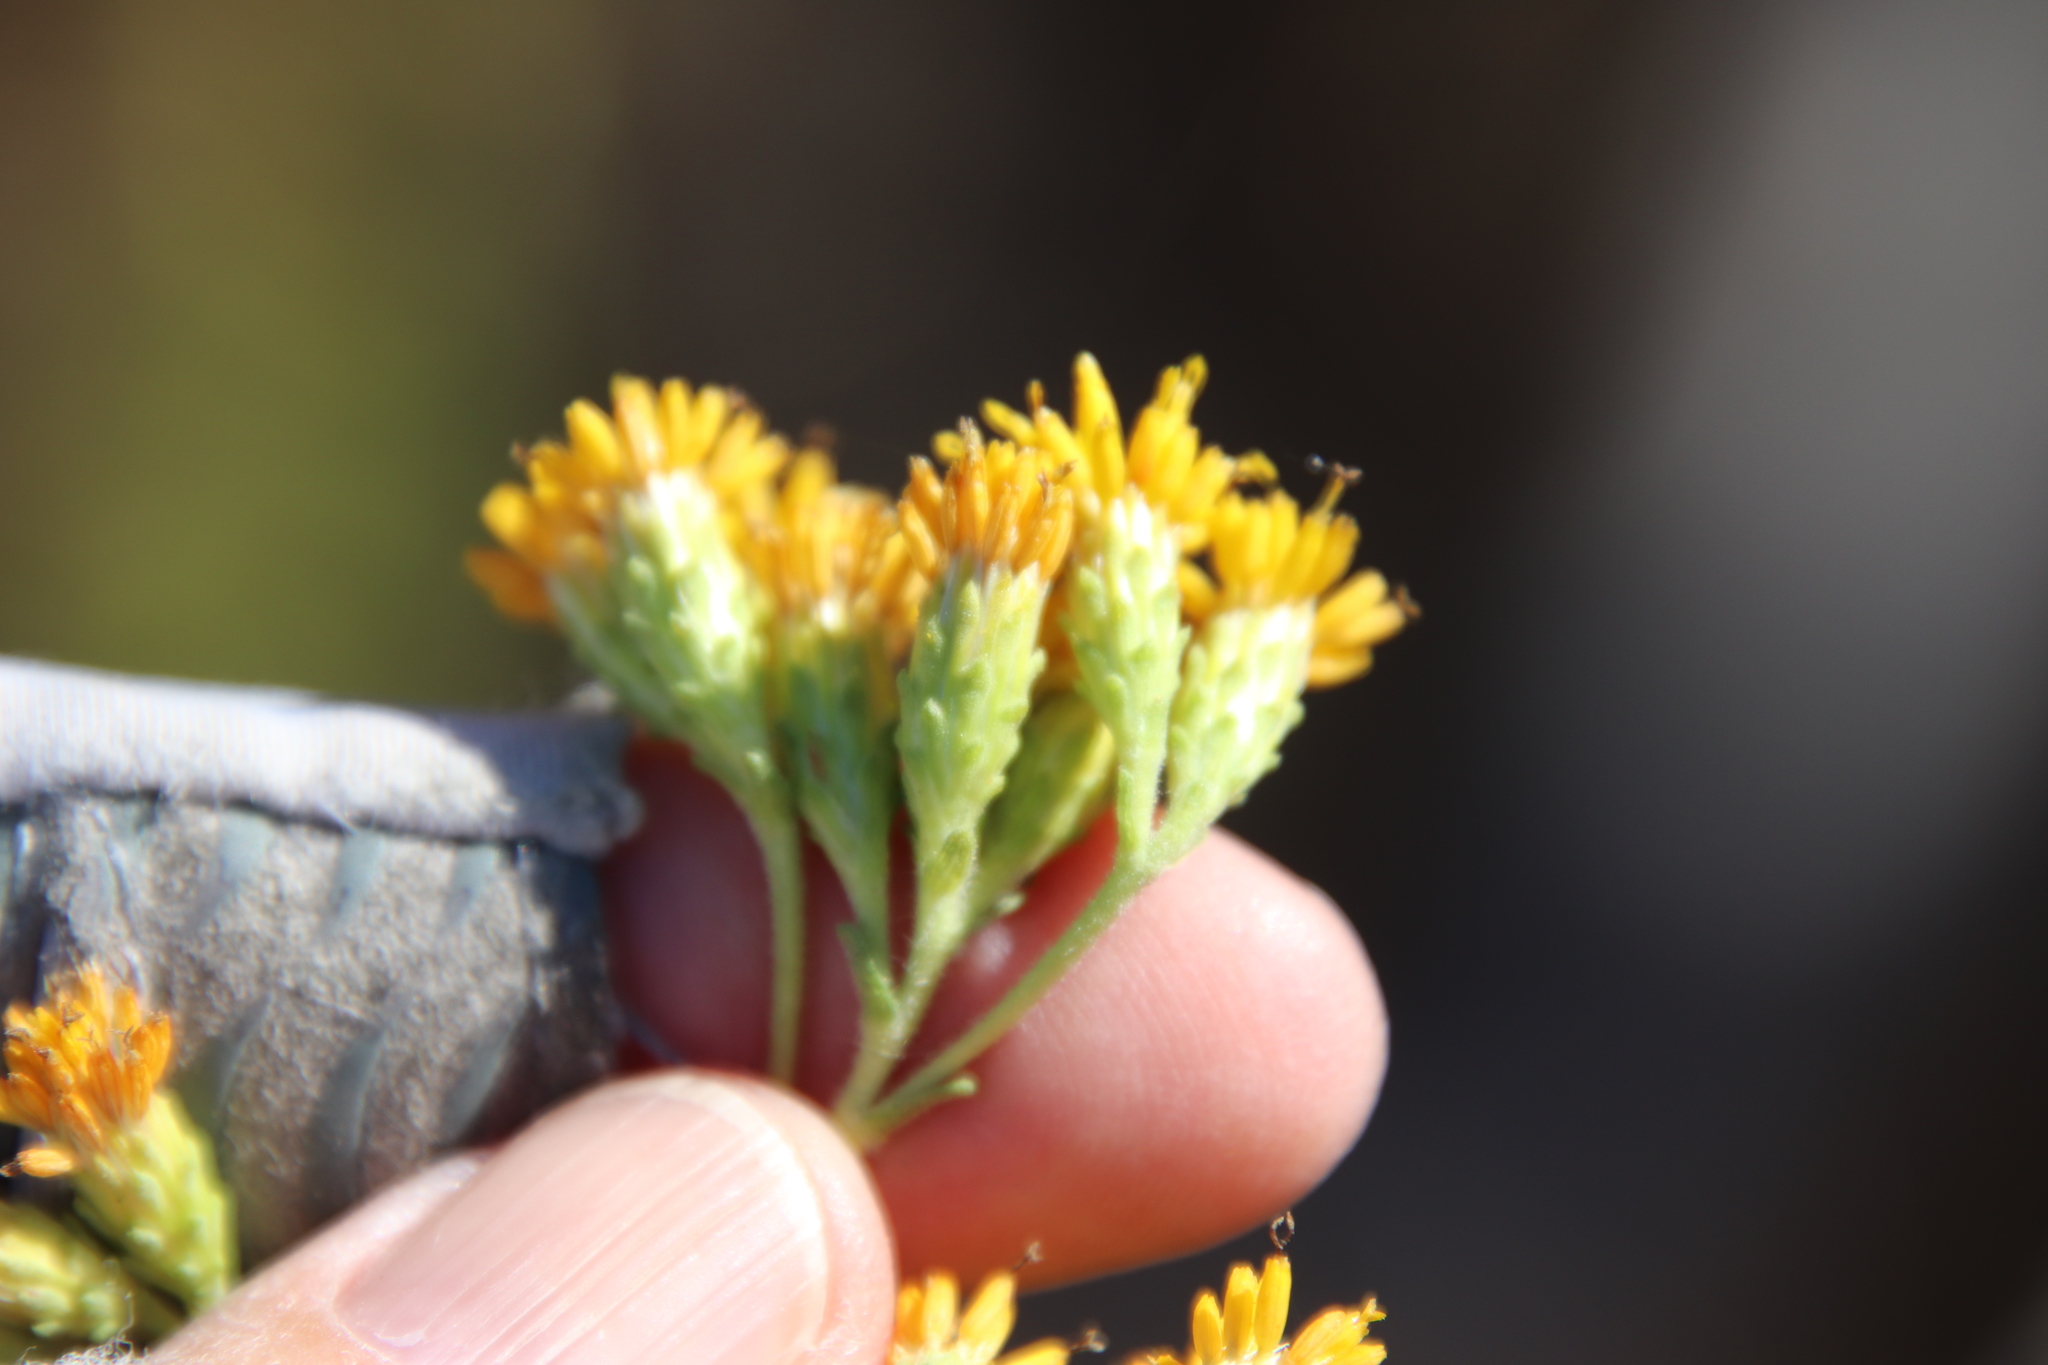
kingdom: Plantae
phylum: Tracheophyta
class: Magnoliopsida
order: Asterales
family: Asteraceae
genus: Isocoma
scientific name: Isocoma menziesii
